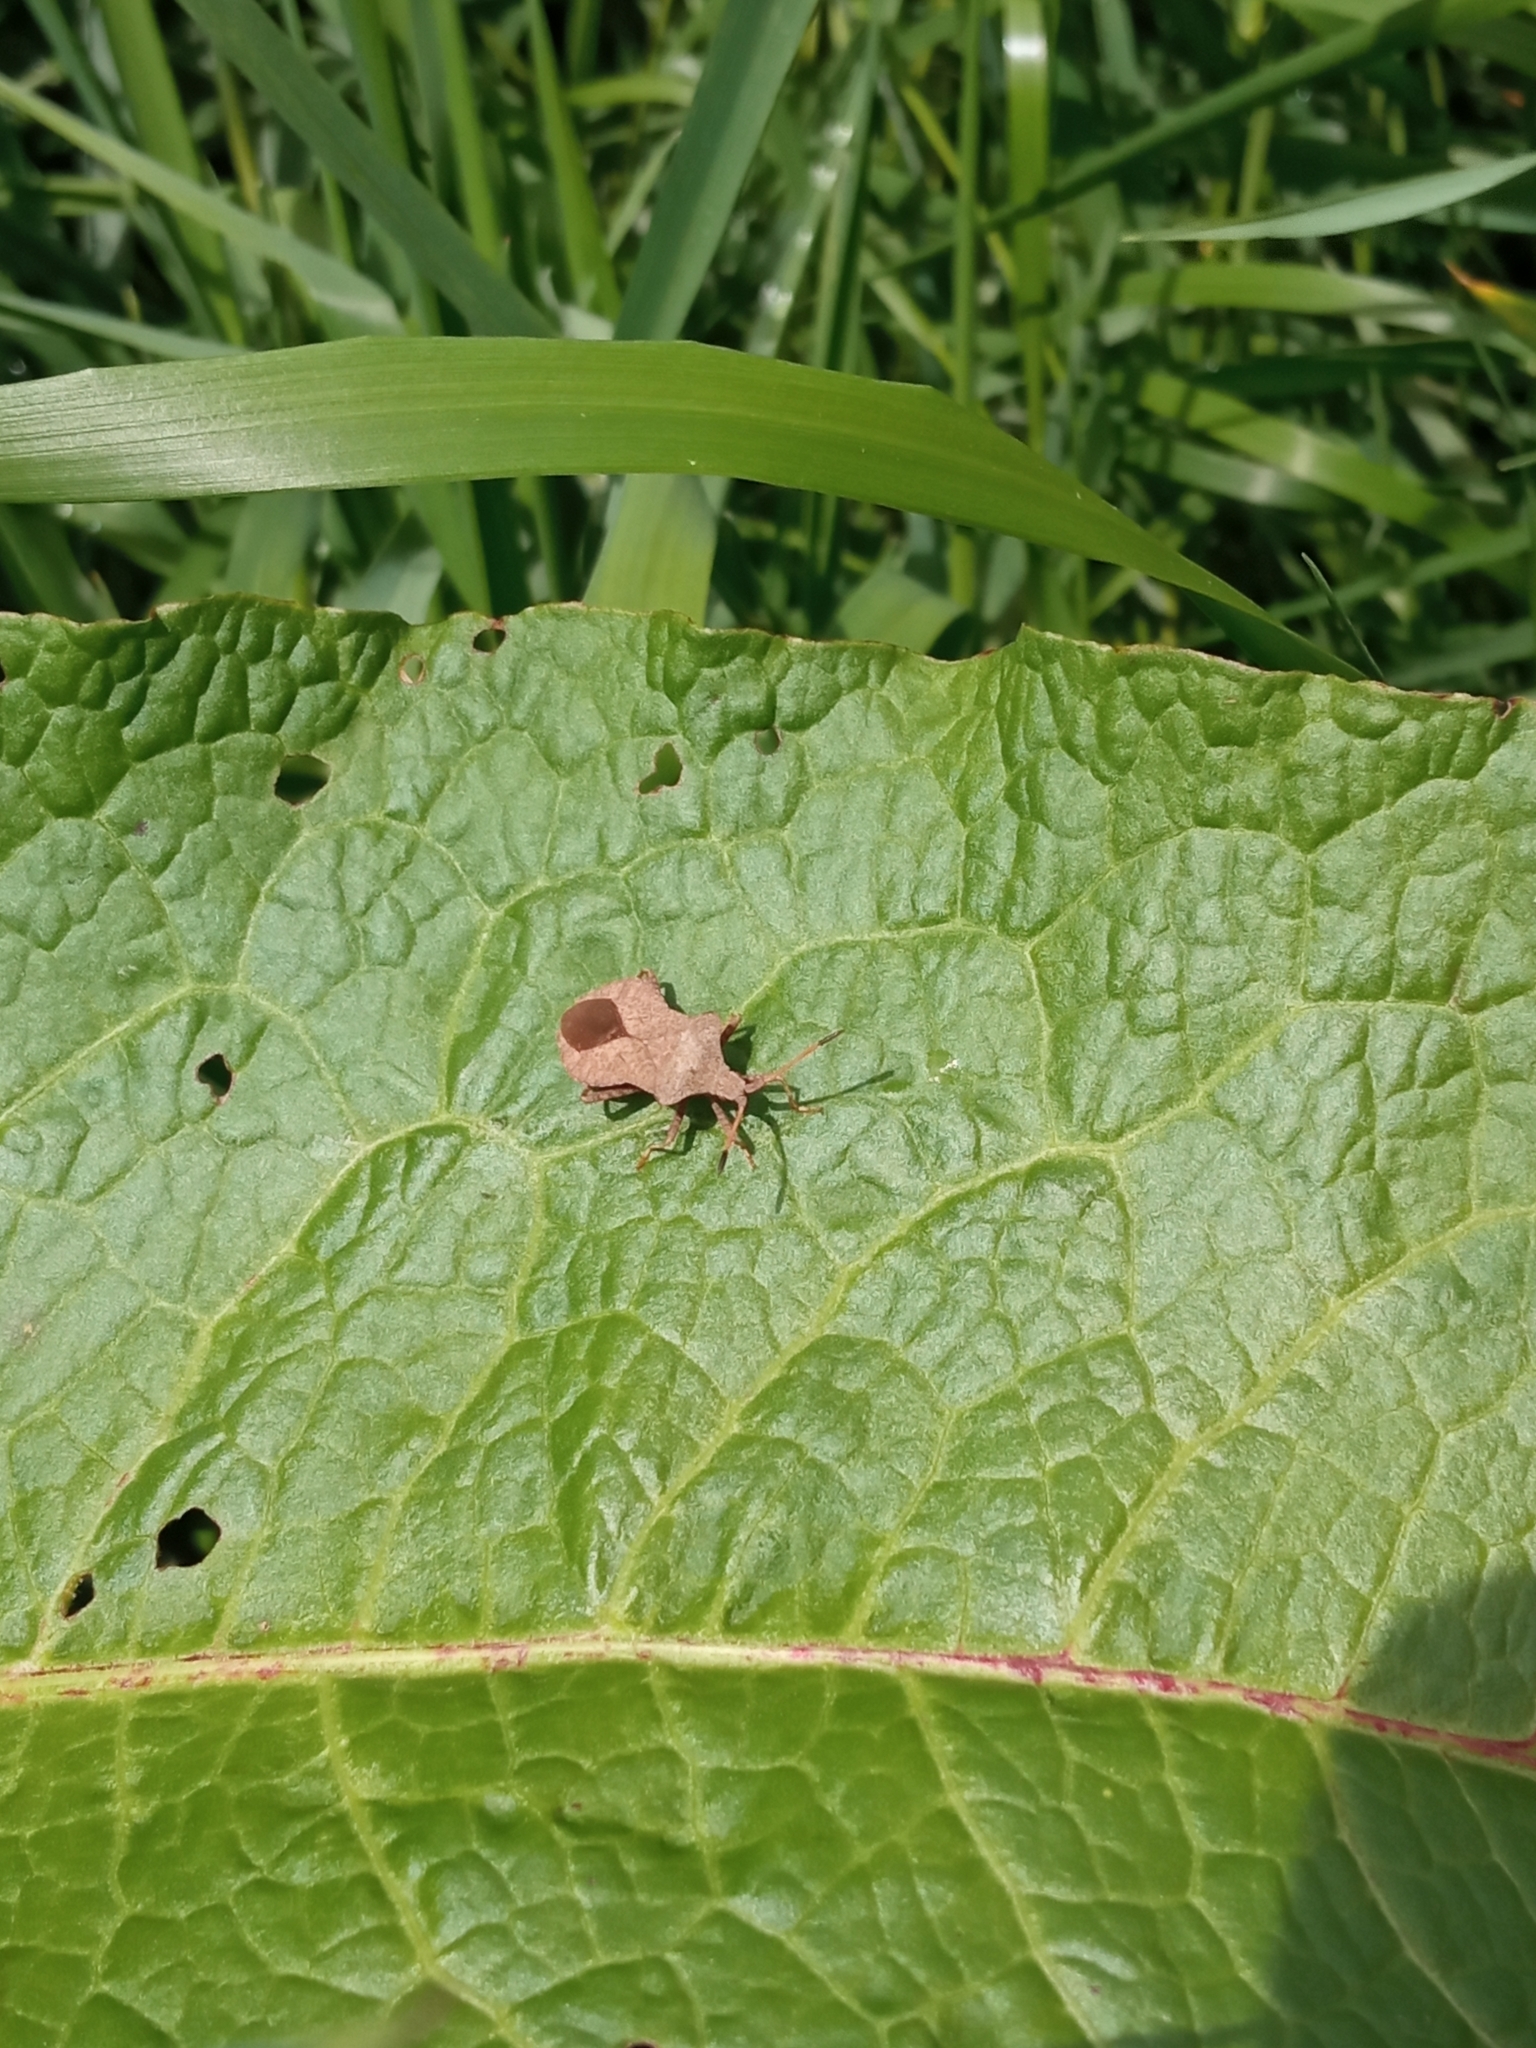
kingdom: Animalia
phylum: Arthropoda
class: Insecta
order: Hemiptera
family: Coreidae
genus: Coreus
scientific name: Coreus marginatus
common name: Dock bug
